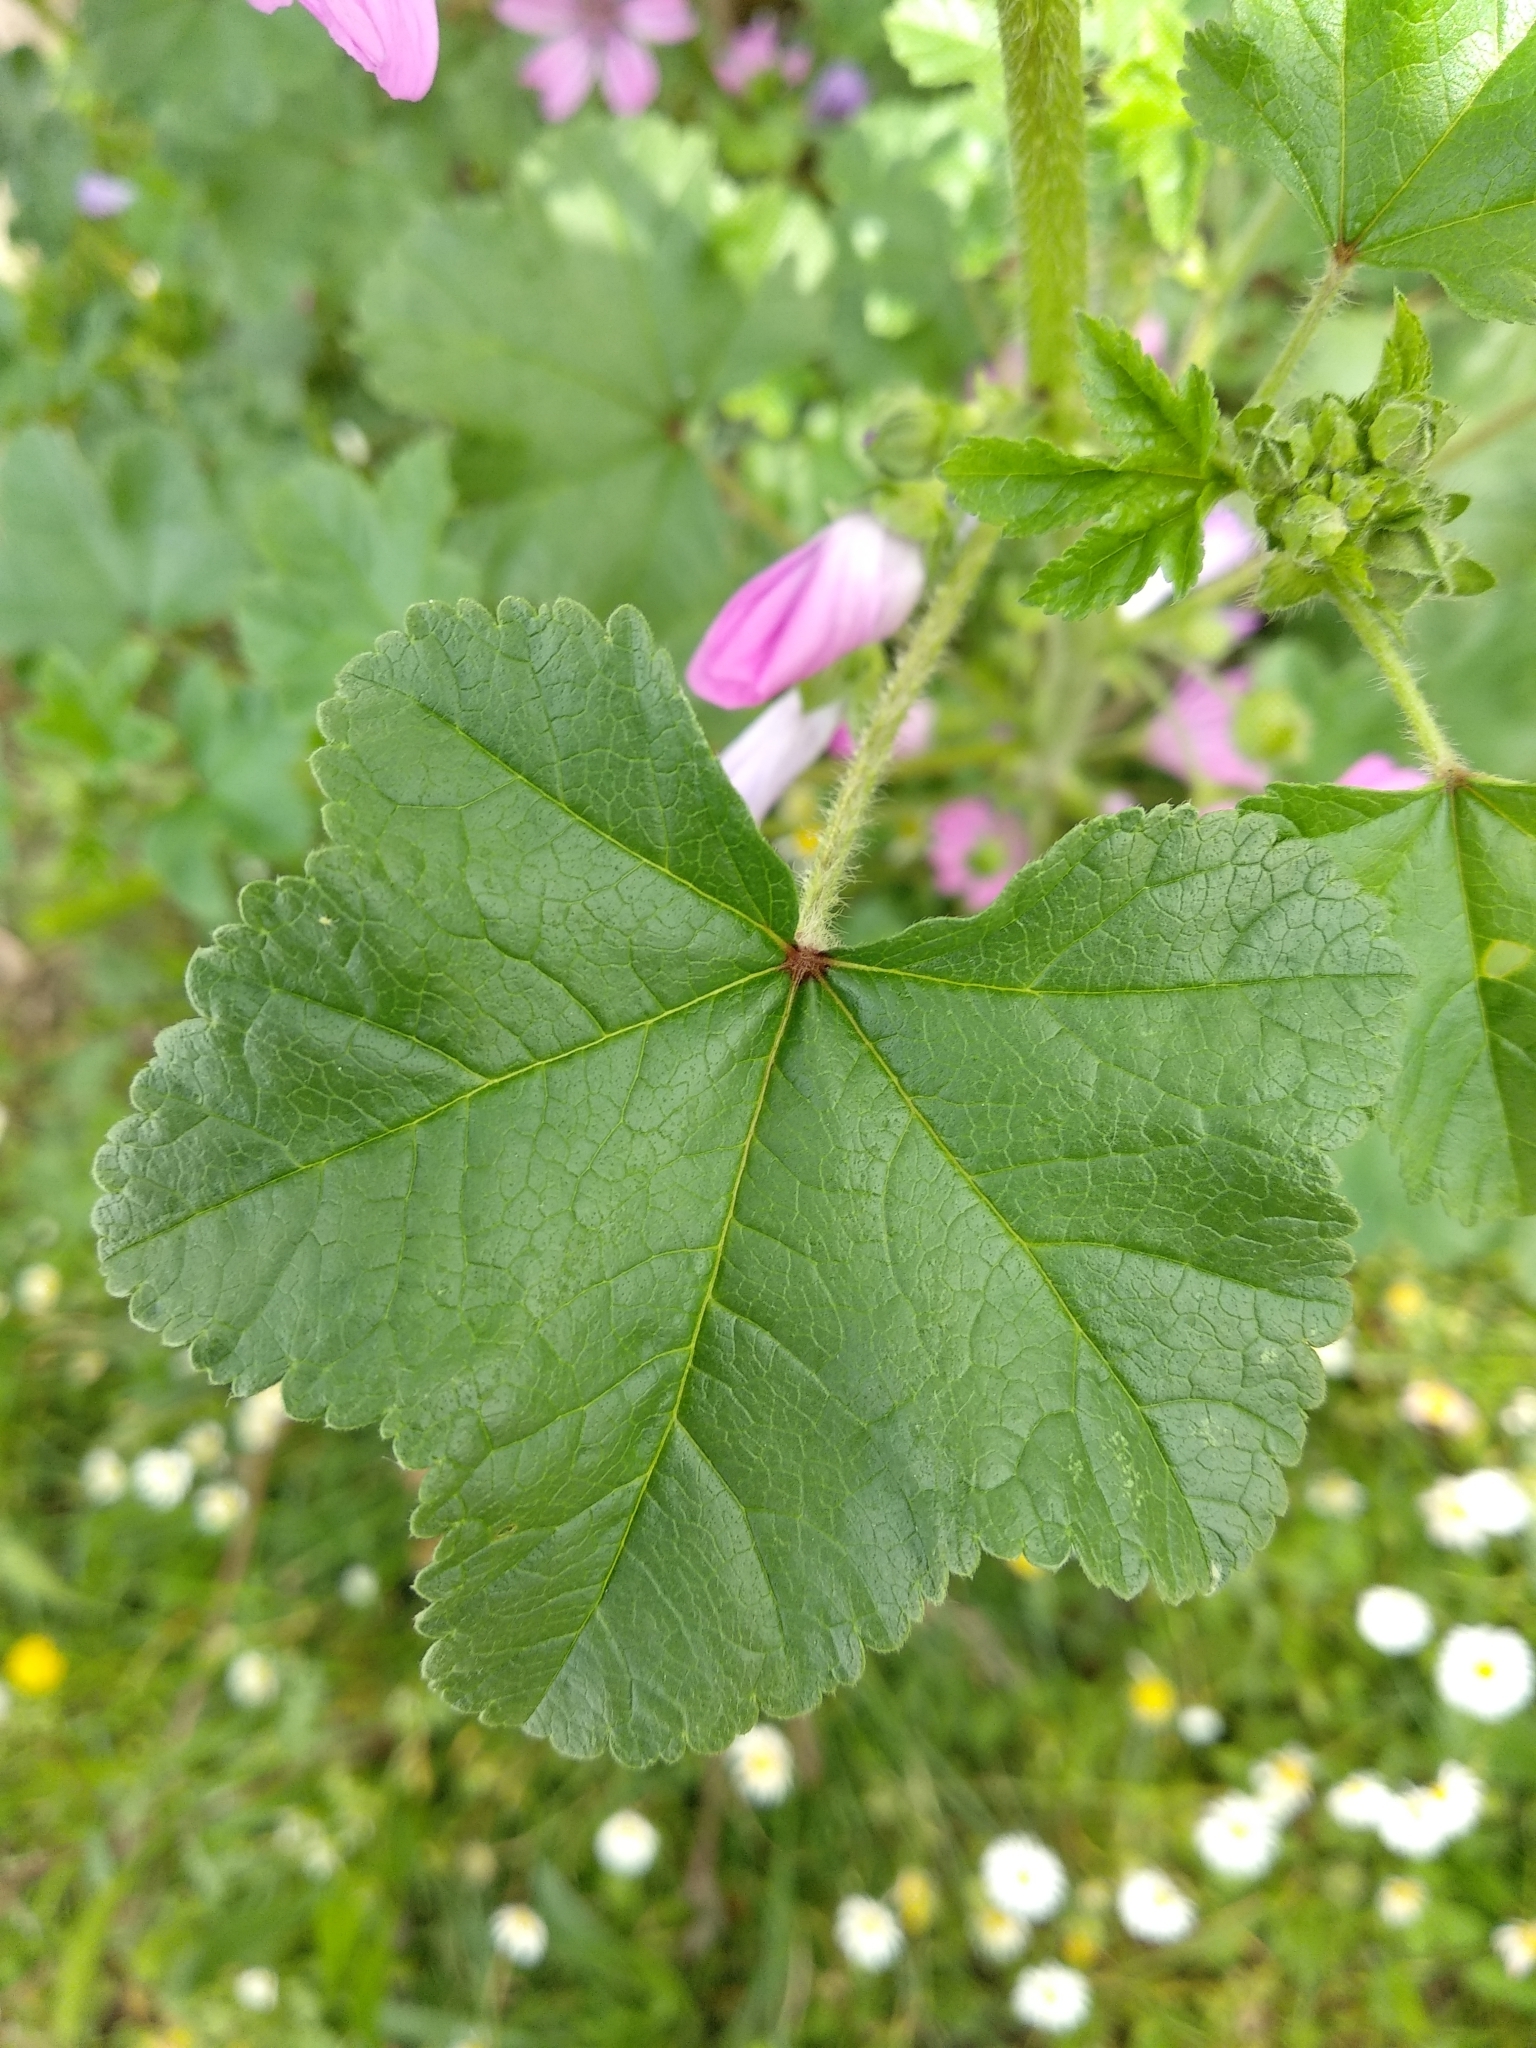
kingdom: Plantae
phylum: Tracheophyta
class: Magnoliopsida
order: Malvales
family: Malvaceae
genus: Malva
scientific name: Malva sylvestris
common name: Common mallow
